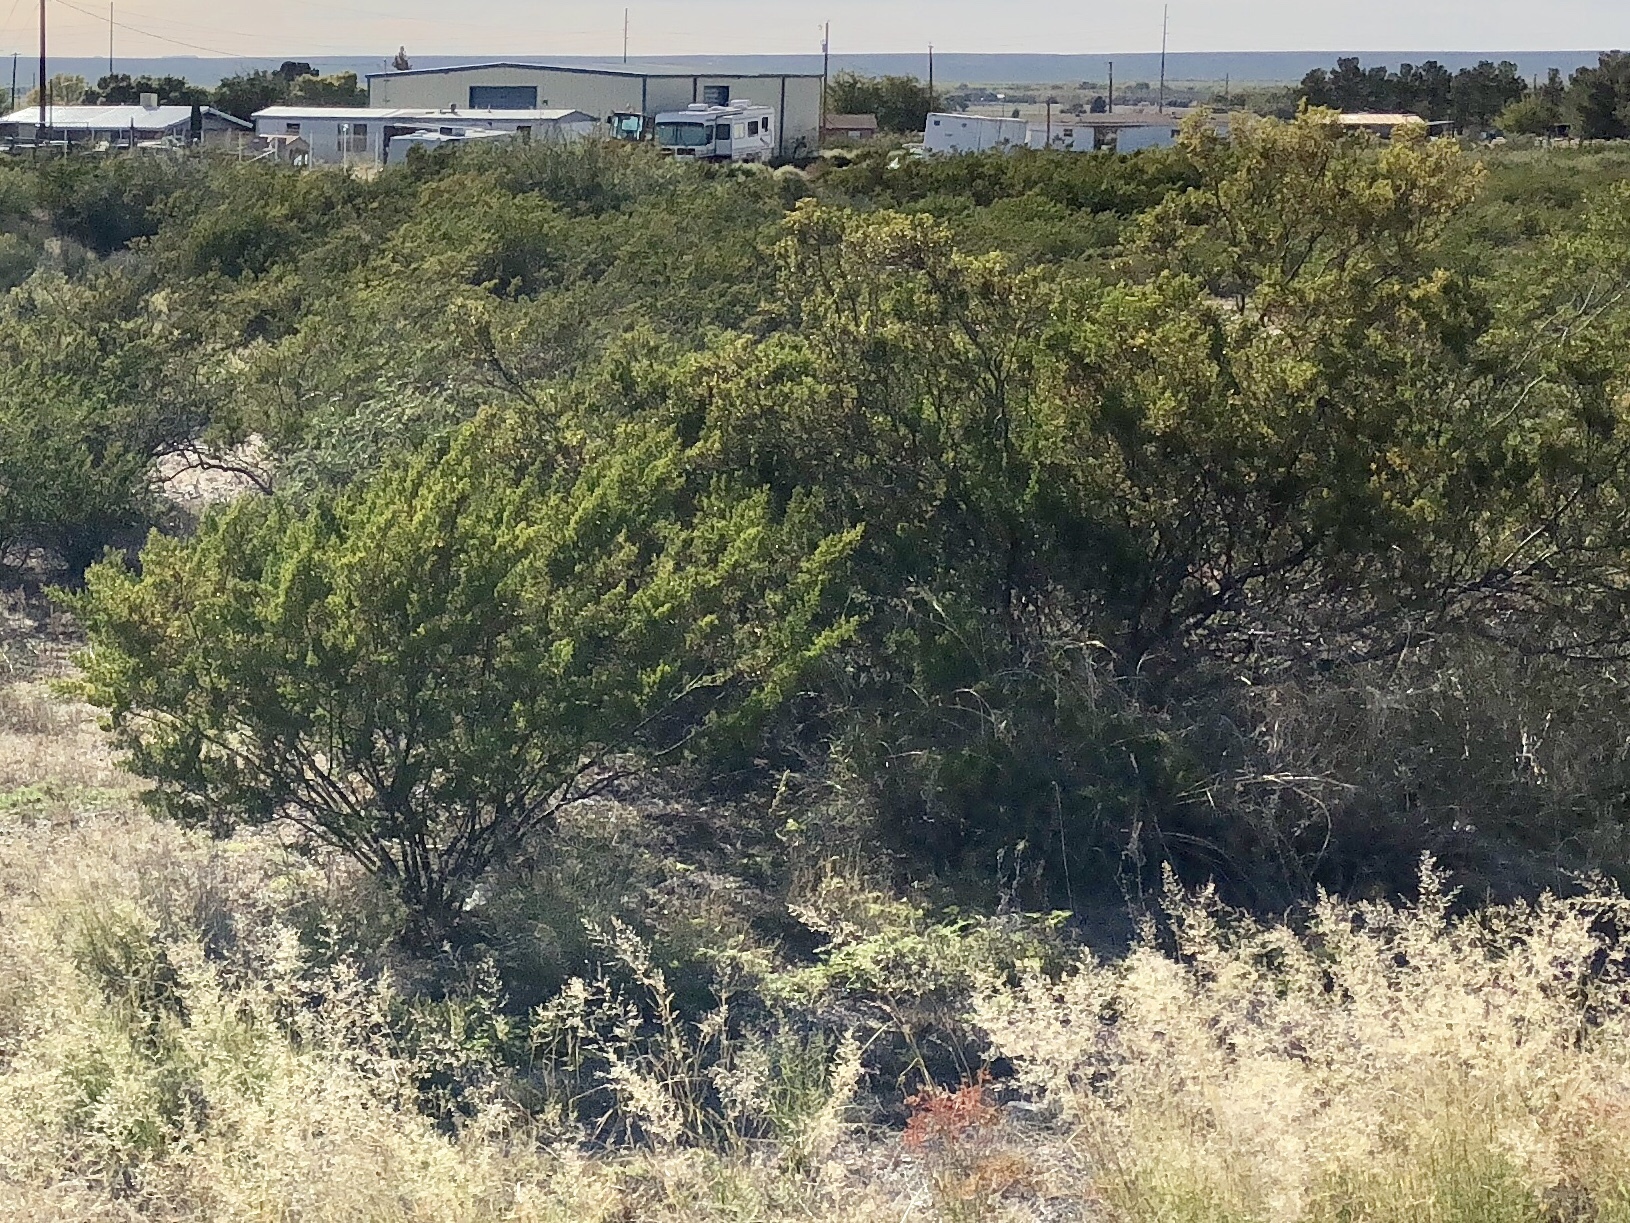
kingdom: Plantae
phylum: Tracheophyta
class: Magnoliopsida
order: Zygophyllales
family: Zygophyllaceae
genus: Larrea
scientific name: Larrea tridentata
